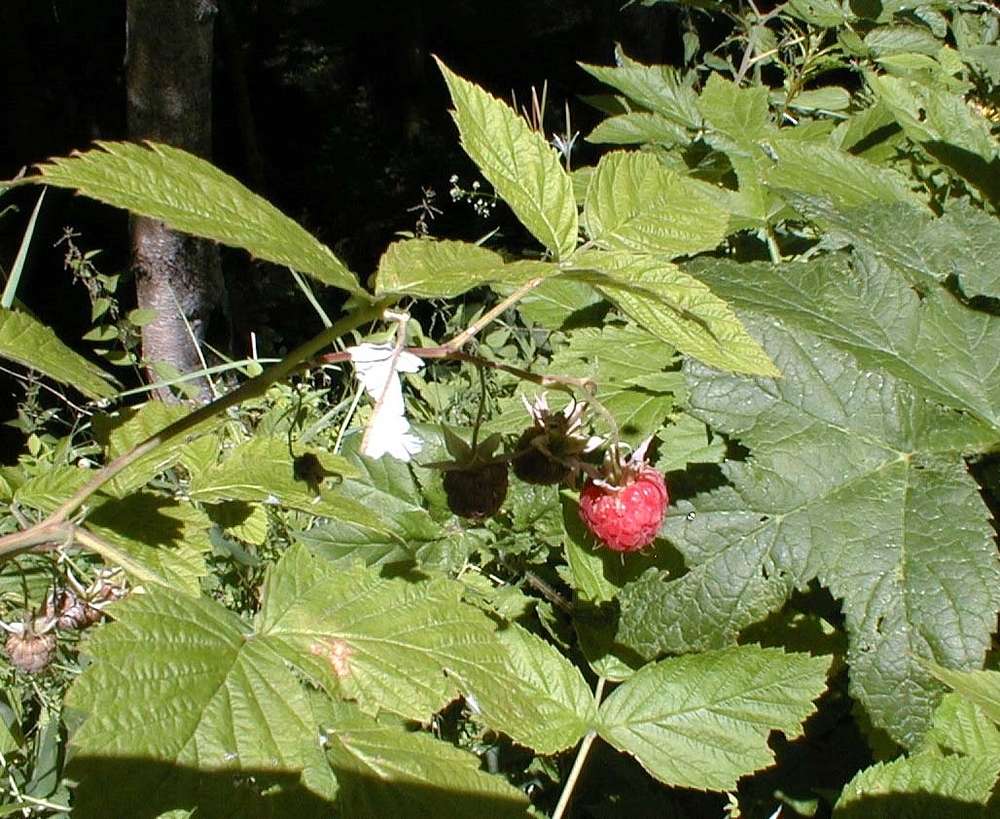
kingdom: Plantae
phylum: Tracheophyta
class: Magnoliopsida
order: Rosales
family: Rosaceae
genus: Rubus
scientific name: Rubus idaeus
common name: Raspberry
